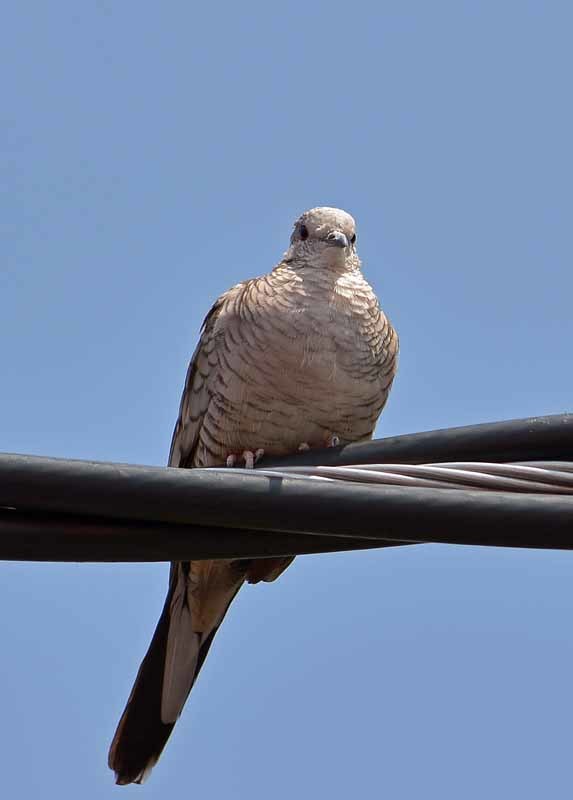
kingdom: Animalia
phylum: Chordata
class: Aves
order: Columbiformes
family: Columbidae
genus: Columbina
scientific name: Columbina inca
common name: Inca dove
